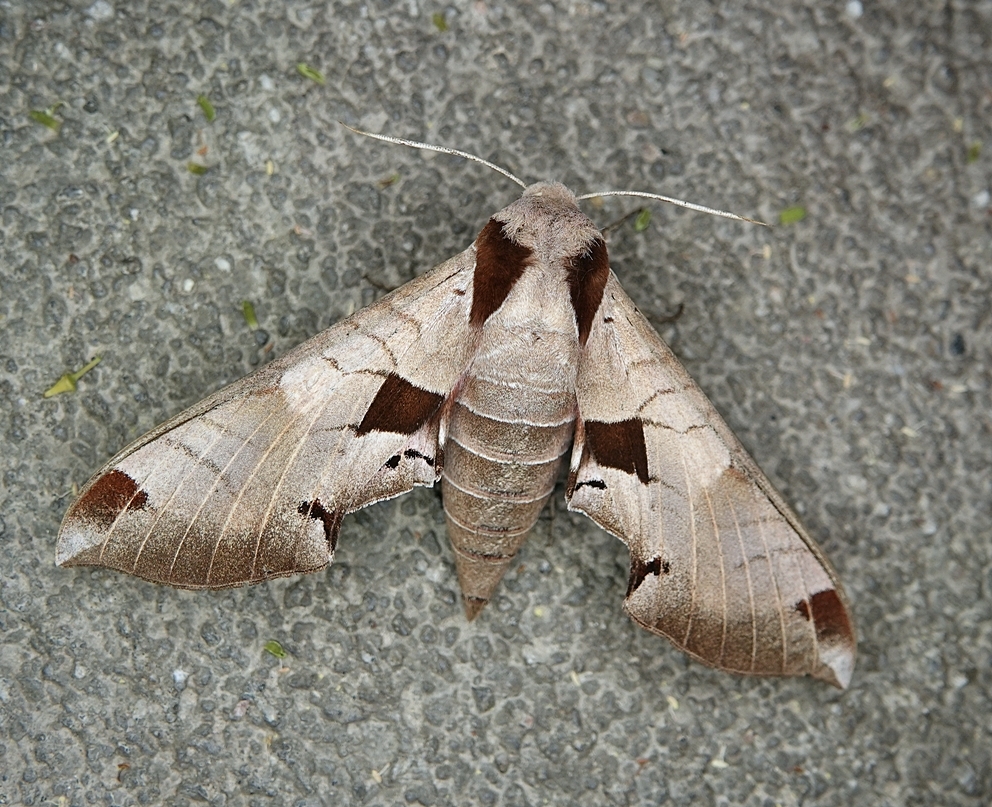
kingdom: Animalia
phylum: Arthropoda
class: Insecta
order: Lepidoptera
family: Sphingidae
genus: Eumorpha
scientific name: Eumorpha achemon
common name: Achemon sphinx
